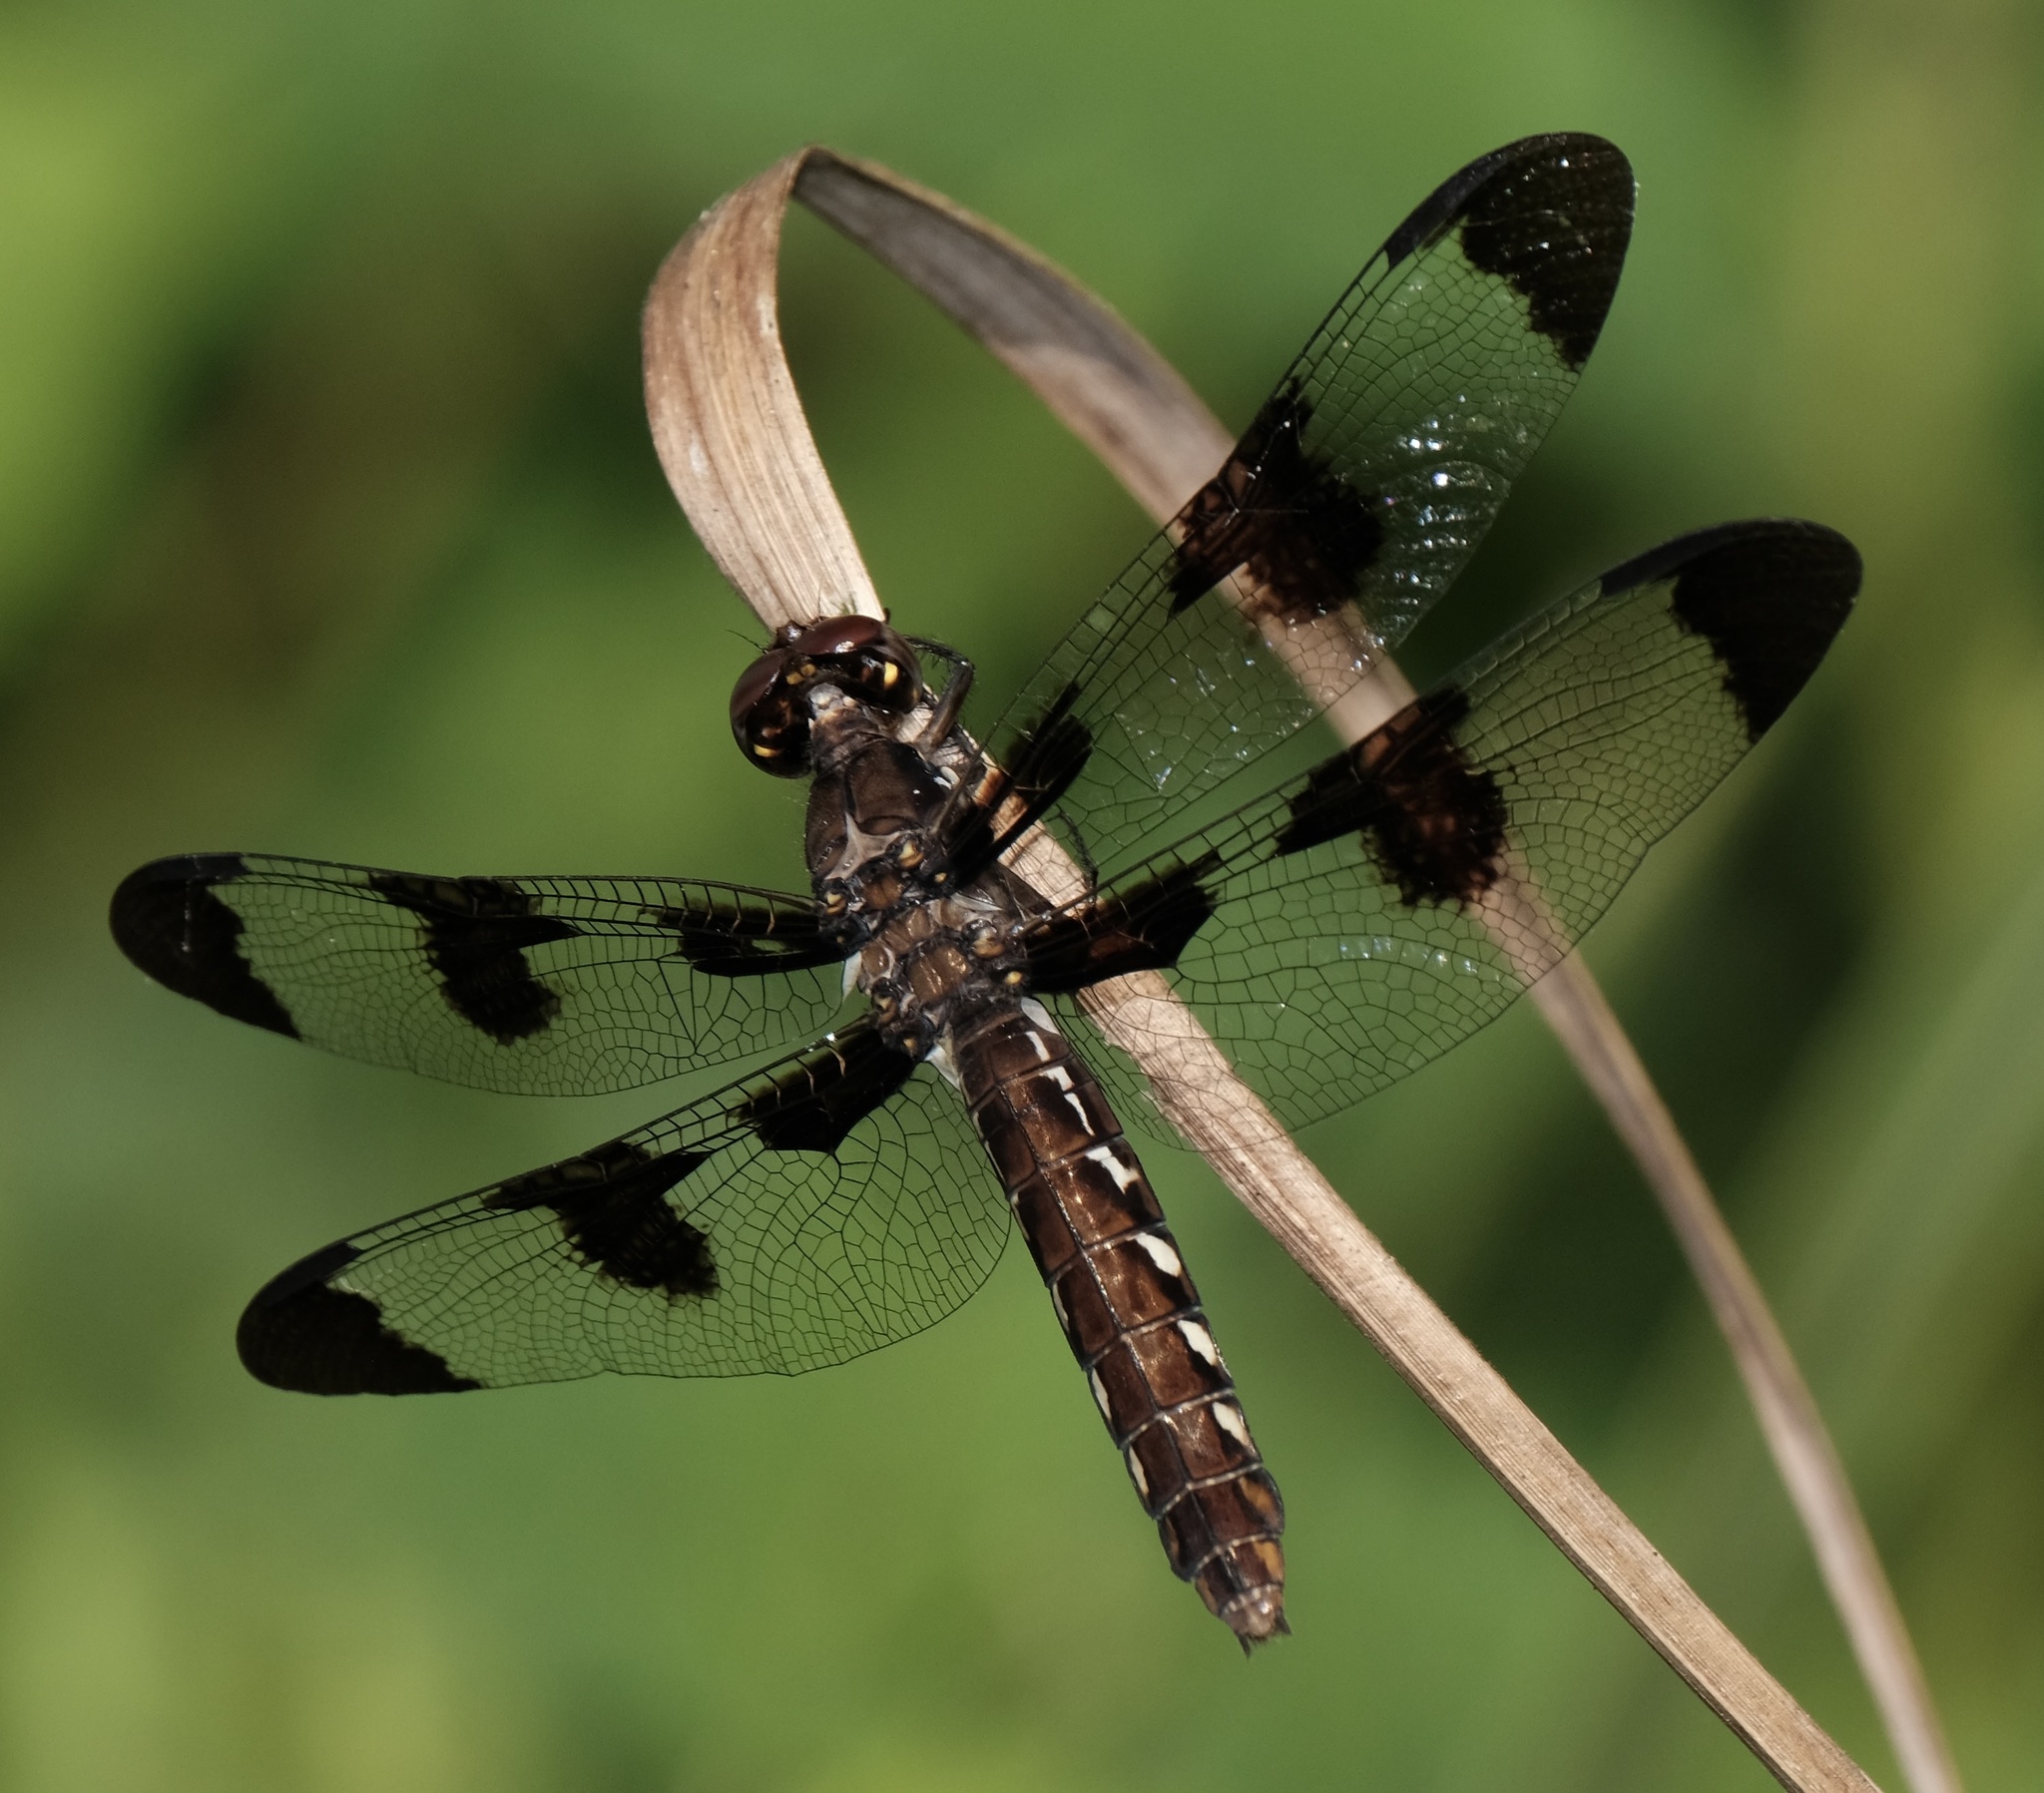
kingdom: Animalia
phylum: Arthropoda
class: Insecta
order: Odonata
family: Libellulidae
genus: Plathemis
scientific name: Plathemis lydia
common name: Common whitetail
